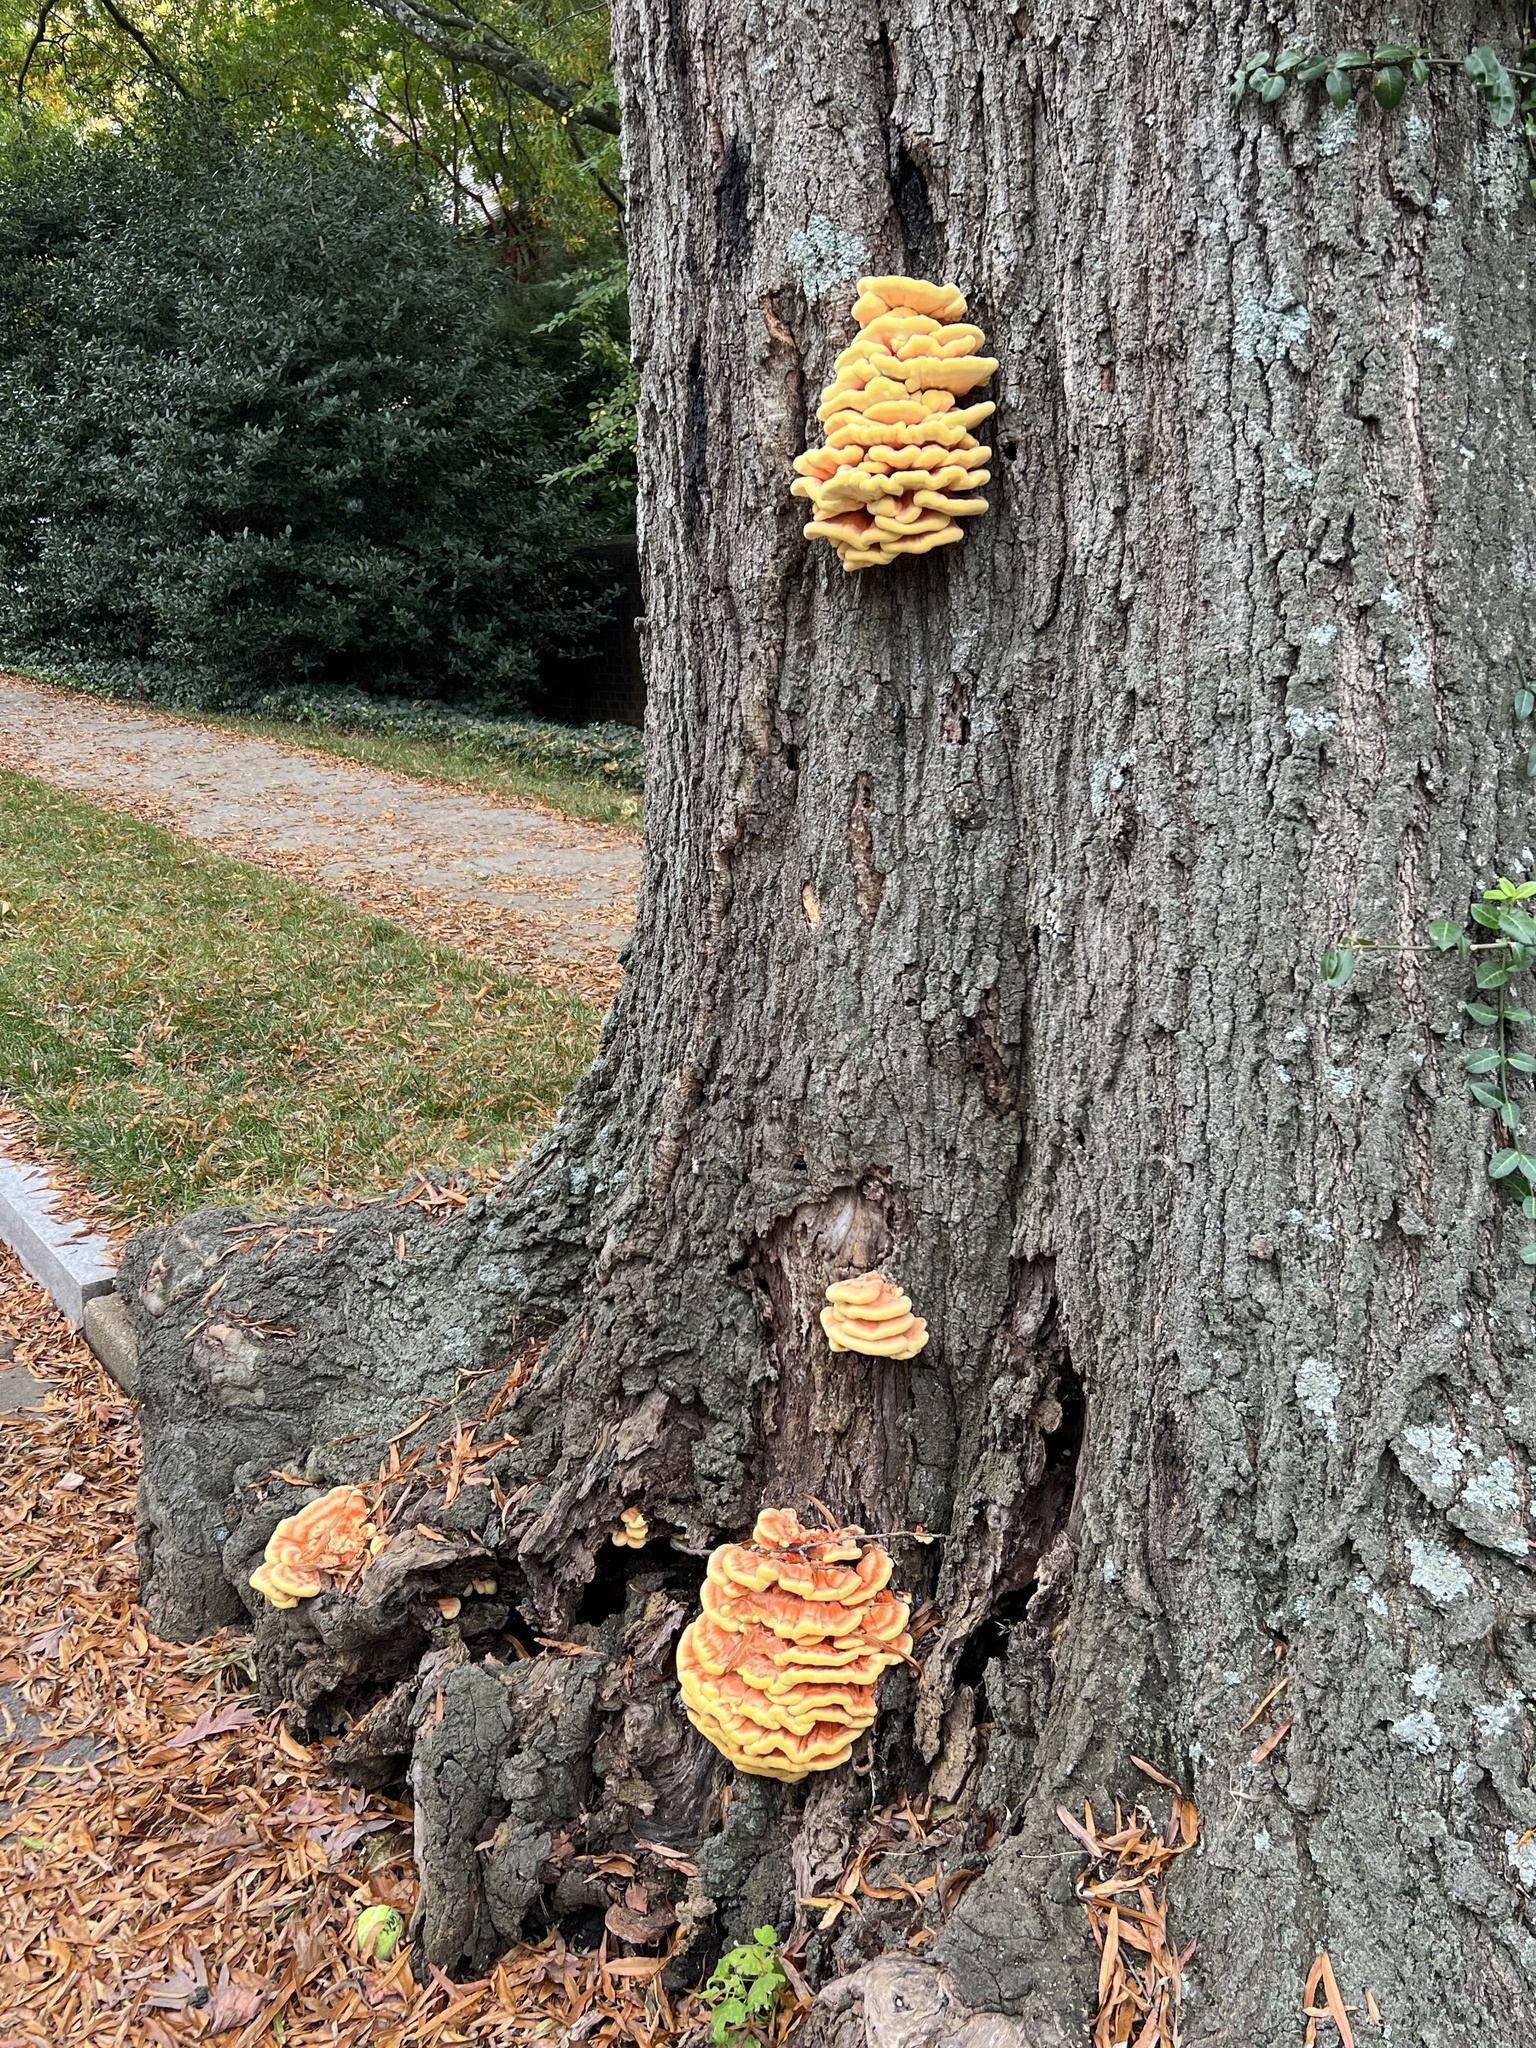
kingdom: Fungi
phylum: Basidiomycota
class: Agaricomycetes
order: Polyporales
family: Laetiporaceae
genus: Laetiporus
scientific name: Laetiporus sulphureus
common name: Chicken of the woods
